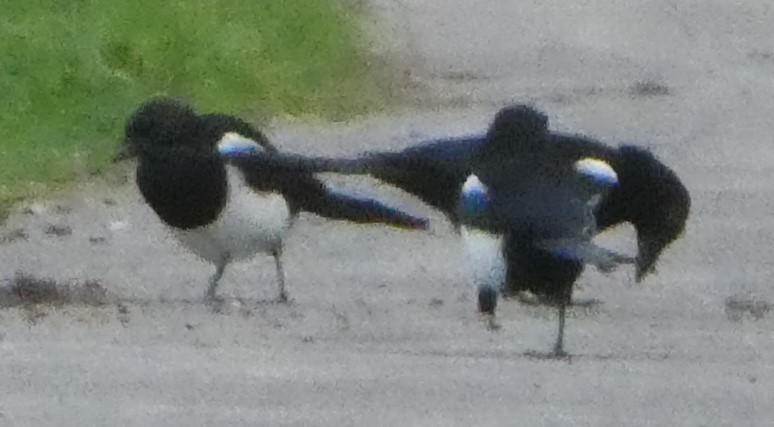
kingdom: Animalia
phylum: Chordata
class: Aves
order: Passeriformes
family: Corvidae
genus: Pica
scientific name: Pica pica
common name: Eurasian magpie
